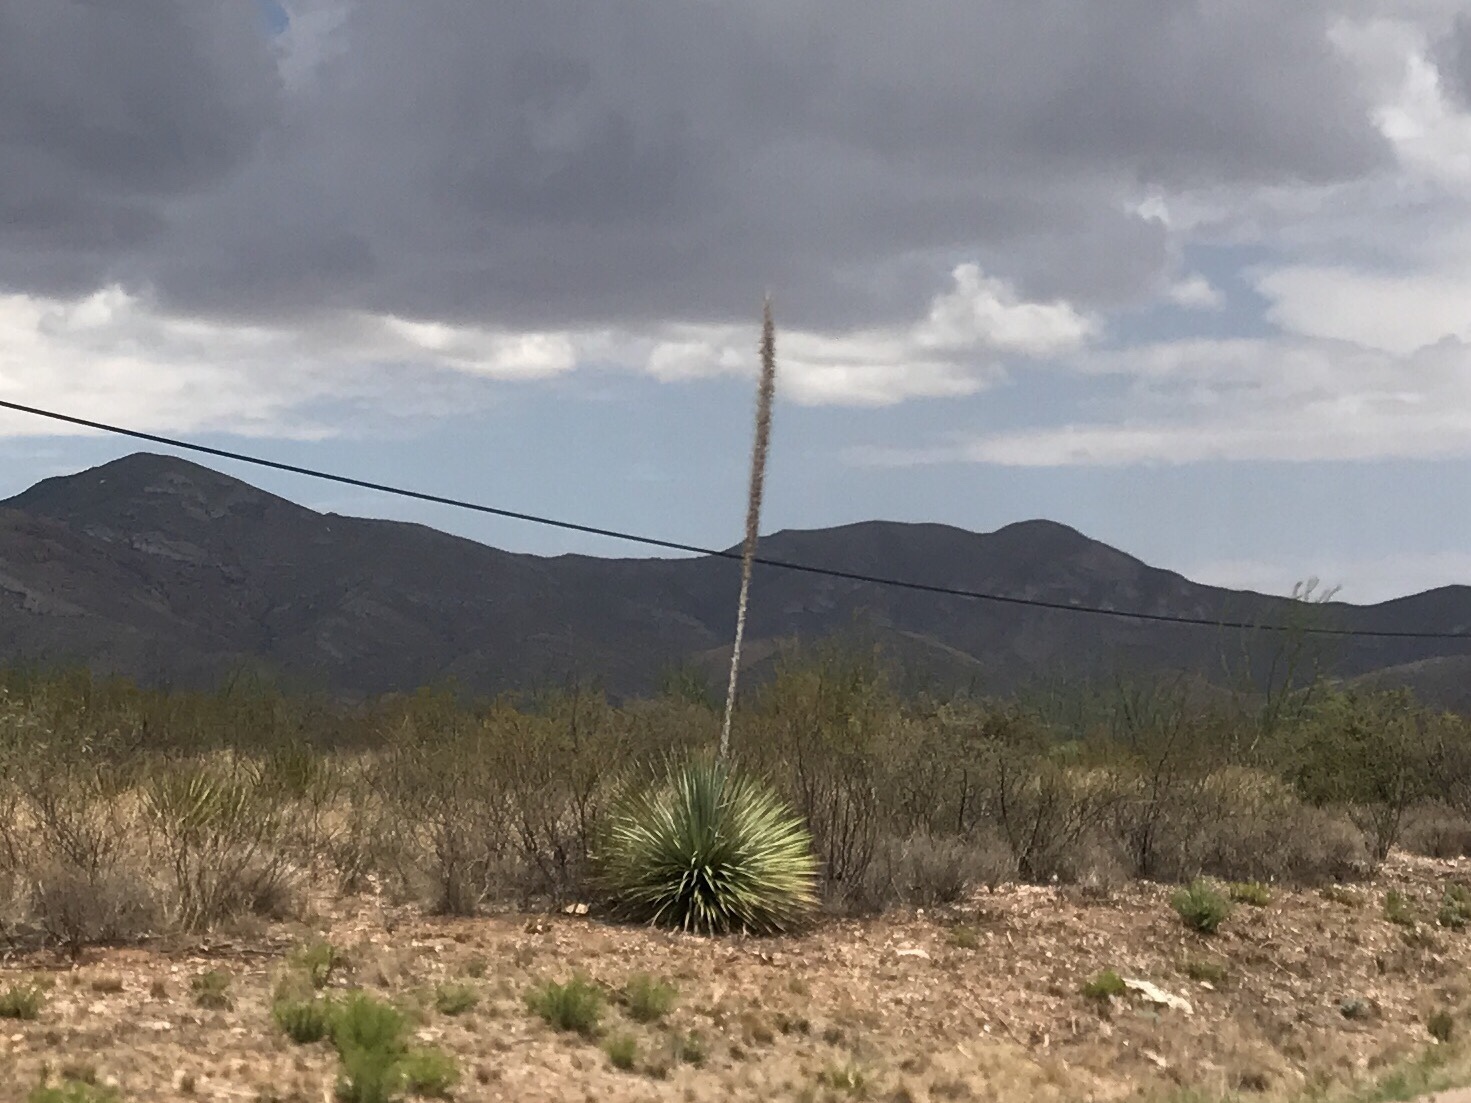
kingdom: Plantae
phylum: Tracheophyta
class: Liliopsida
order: Asparagales
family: Asparagaceae
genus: Dasylirion
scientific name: Dasylirion wheeleri
